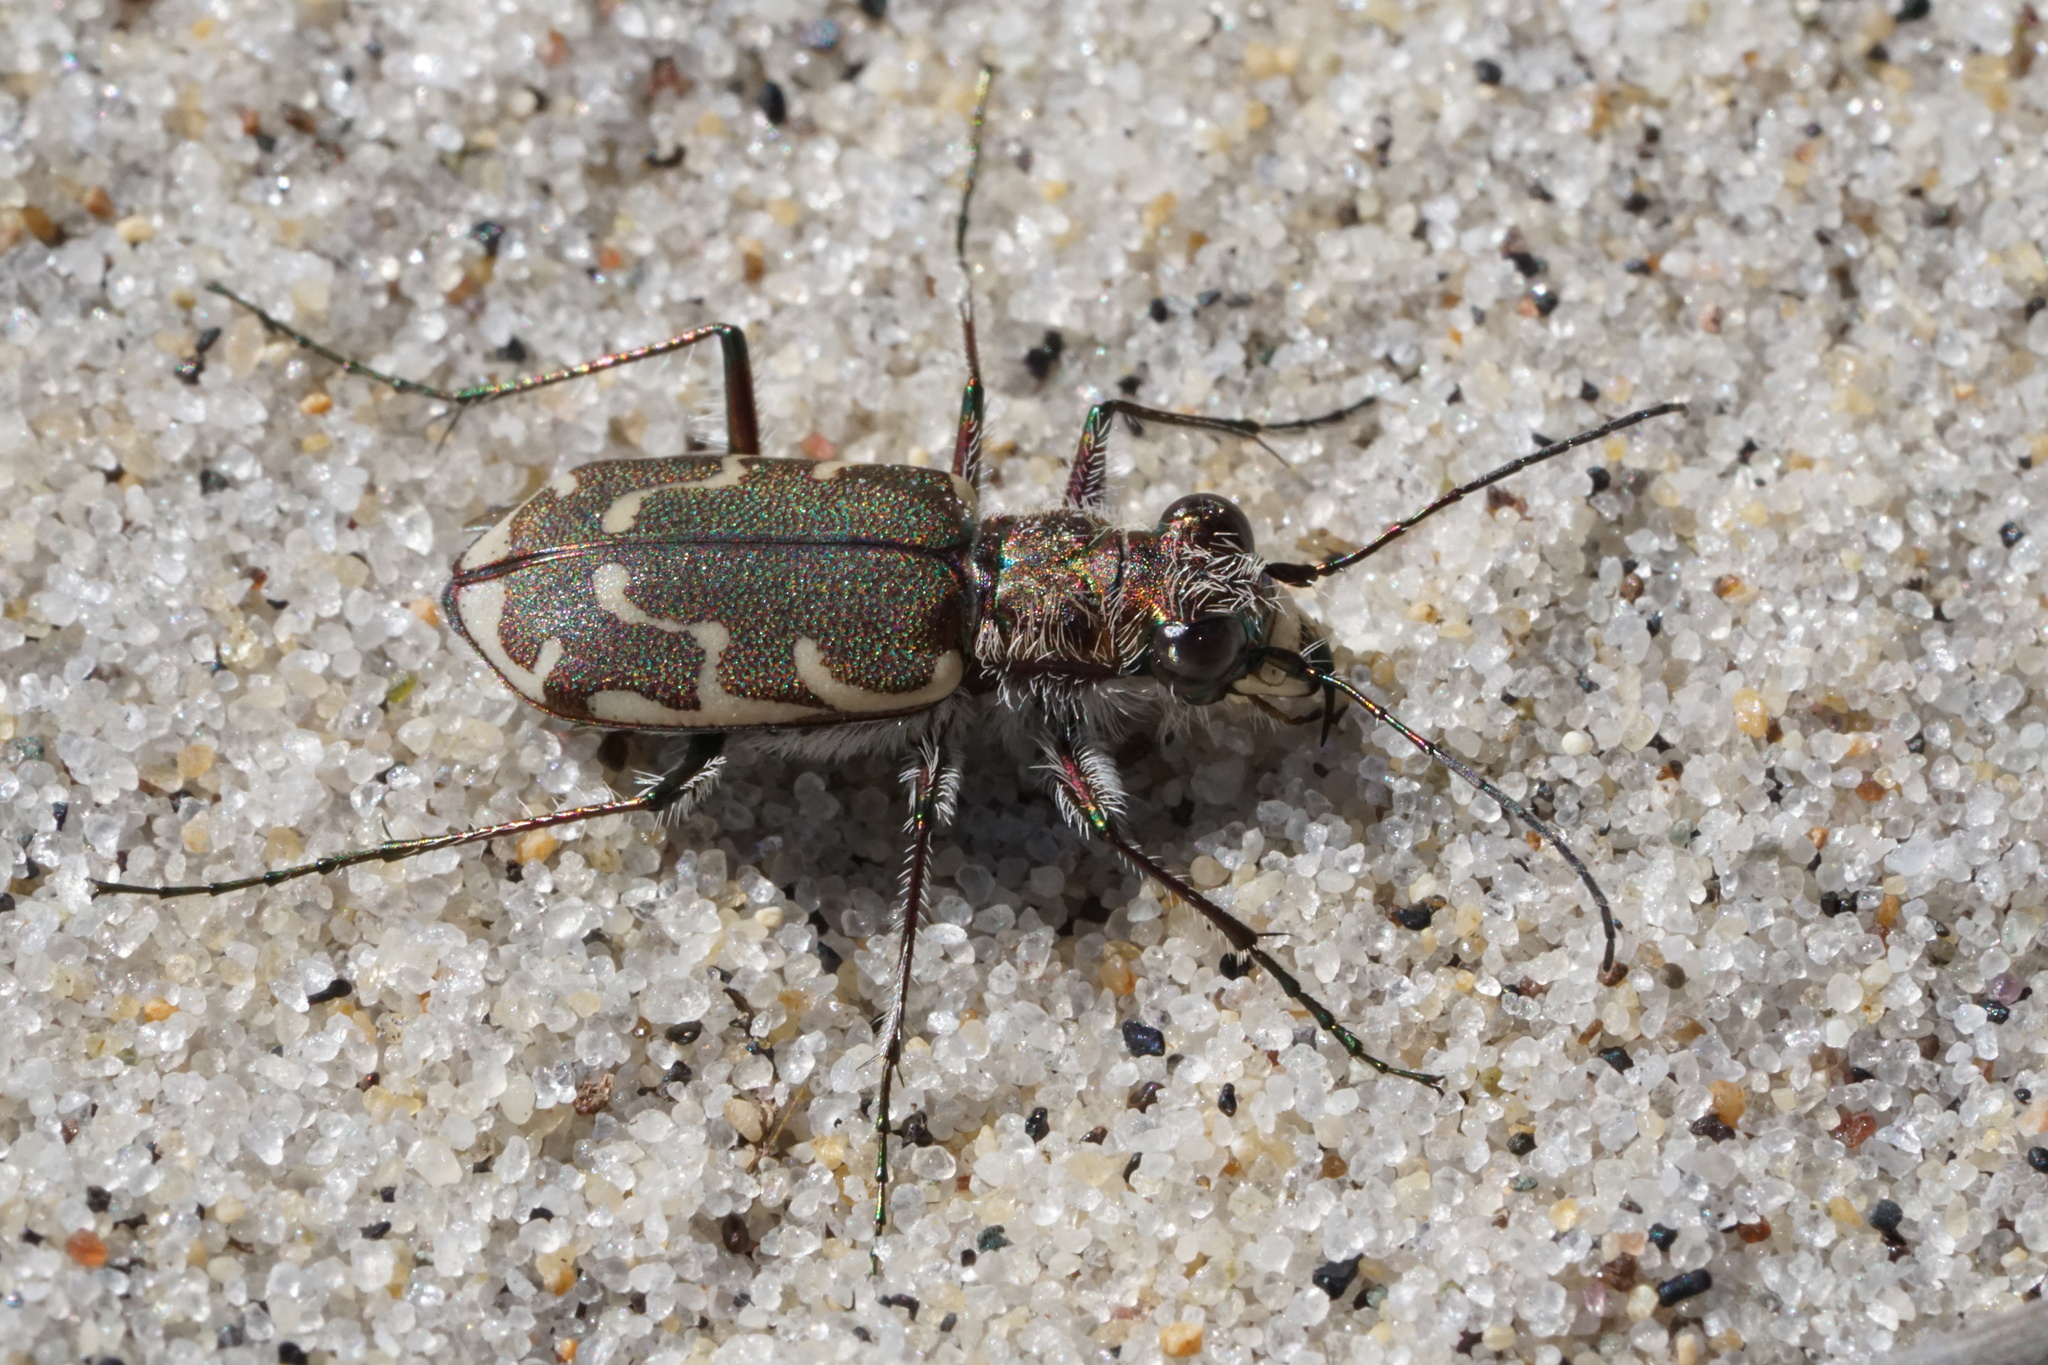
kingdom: Animalia
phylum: Arthropoda
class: Insecta
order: Coleoptera
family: Carabidae
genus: Cicindela
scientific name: Cicindela repanda
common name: Bronzed tiger beetle
